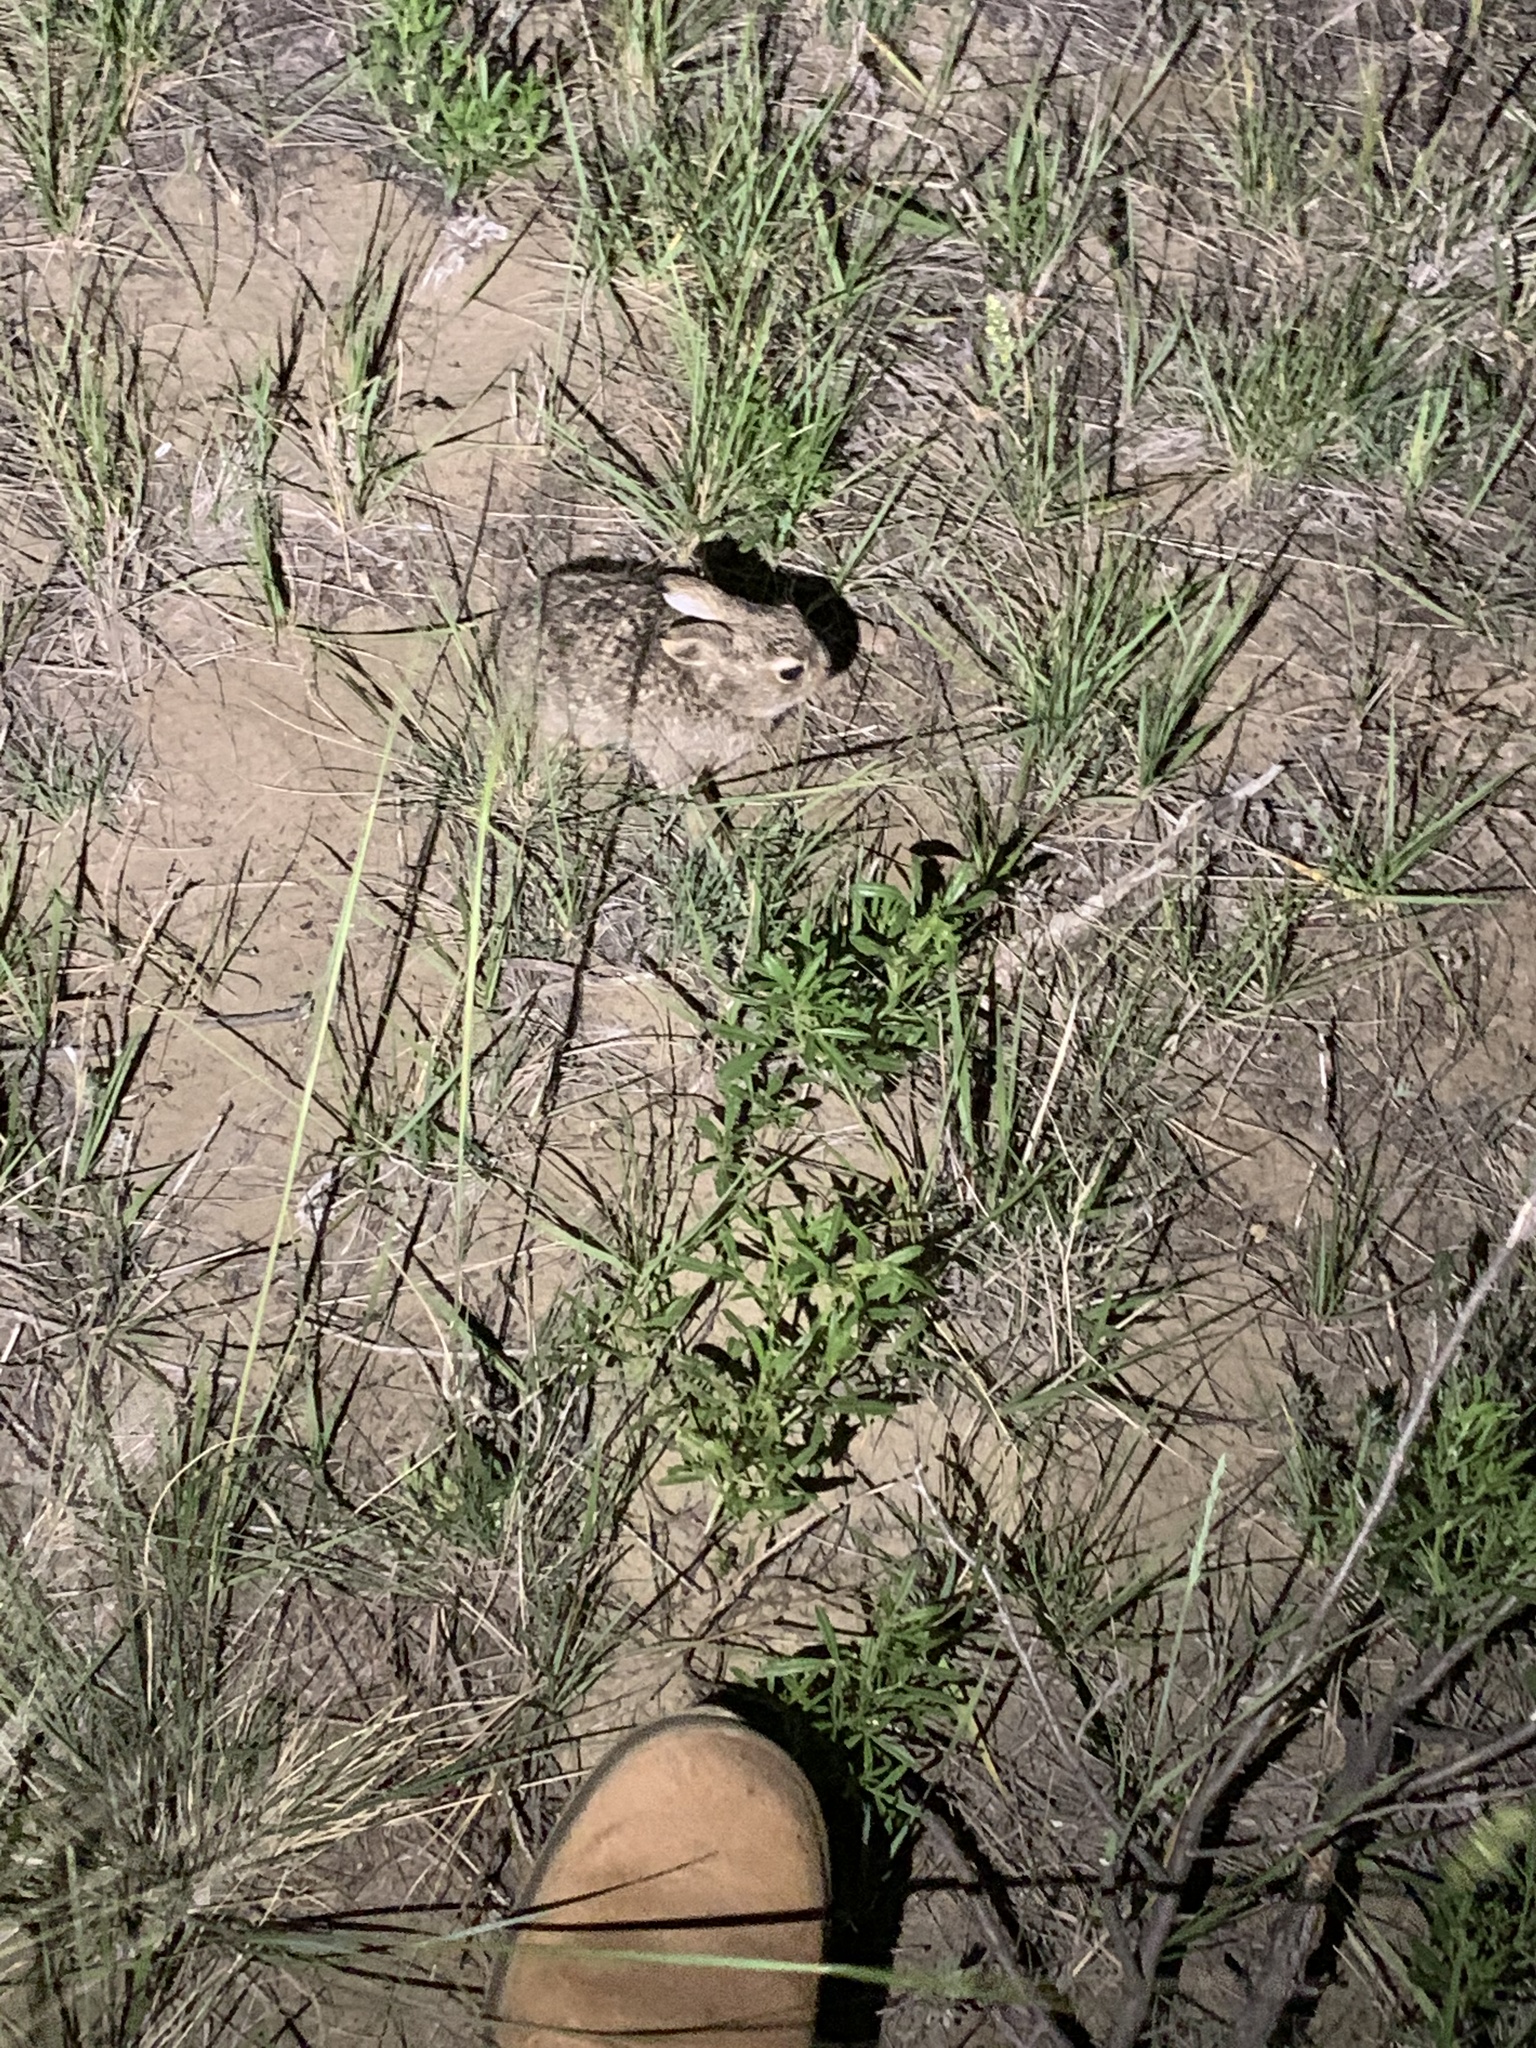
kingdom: Animalia
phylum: Chordata
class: Mammalia
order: Lagomorpha
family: Leporidae
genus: Sylvilagus
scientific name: Sylvilagus nuttallii
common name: Mountain cottontail
